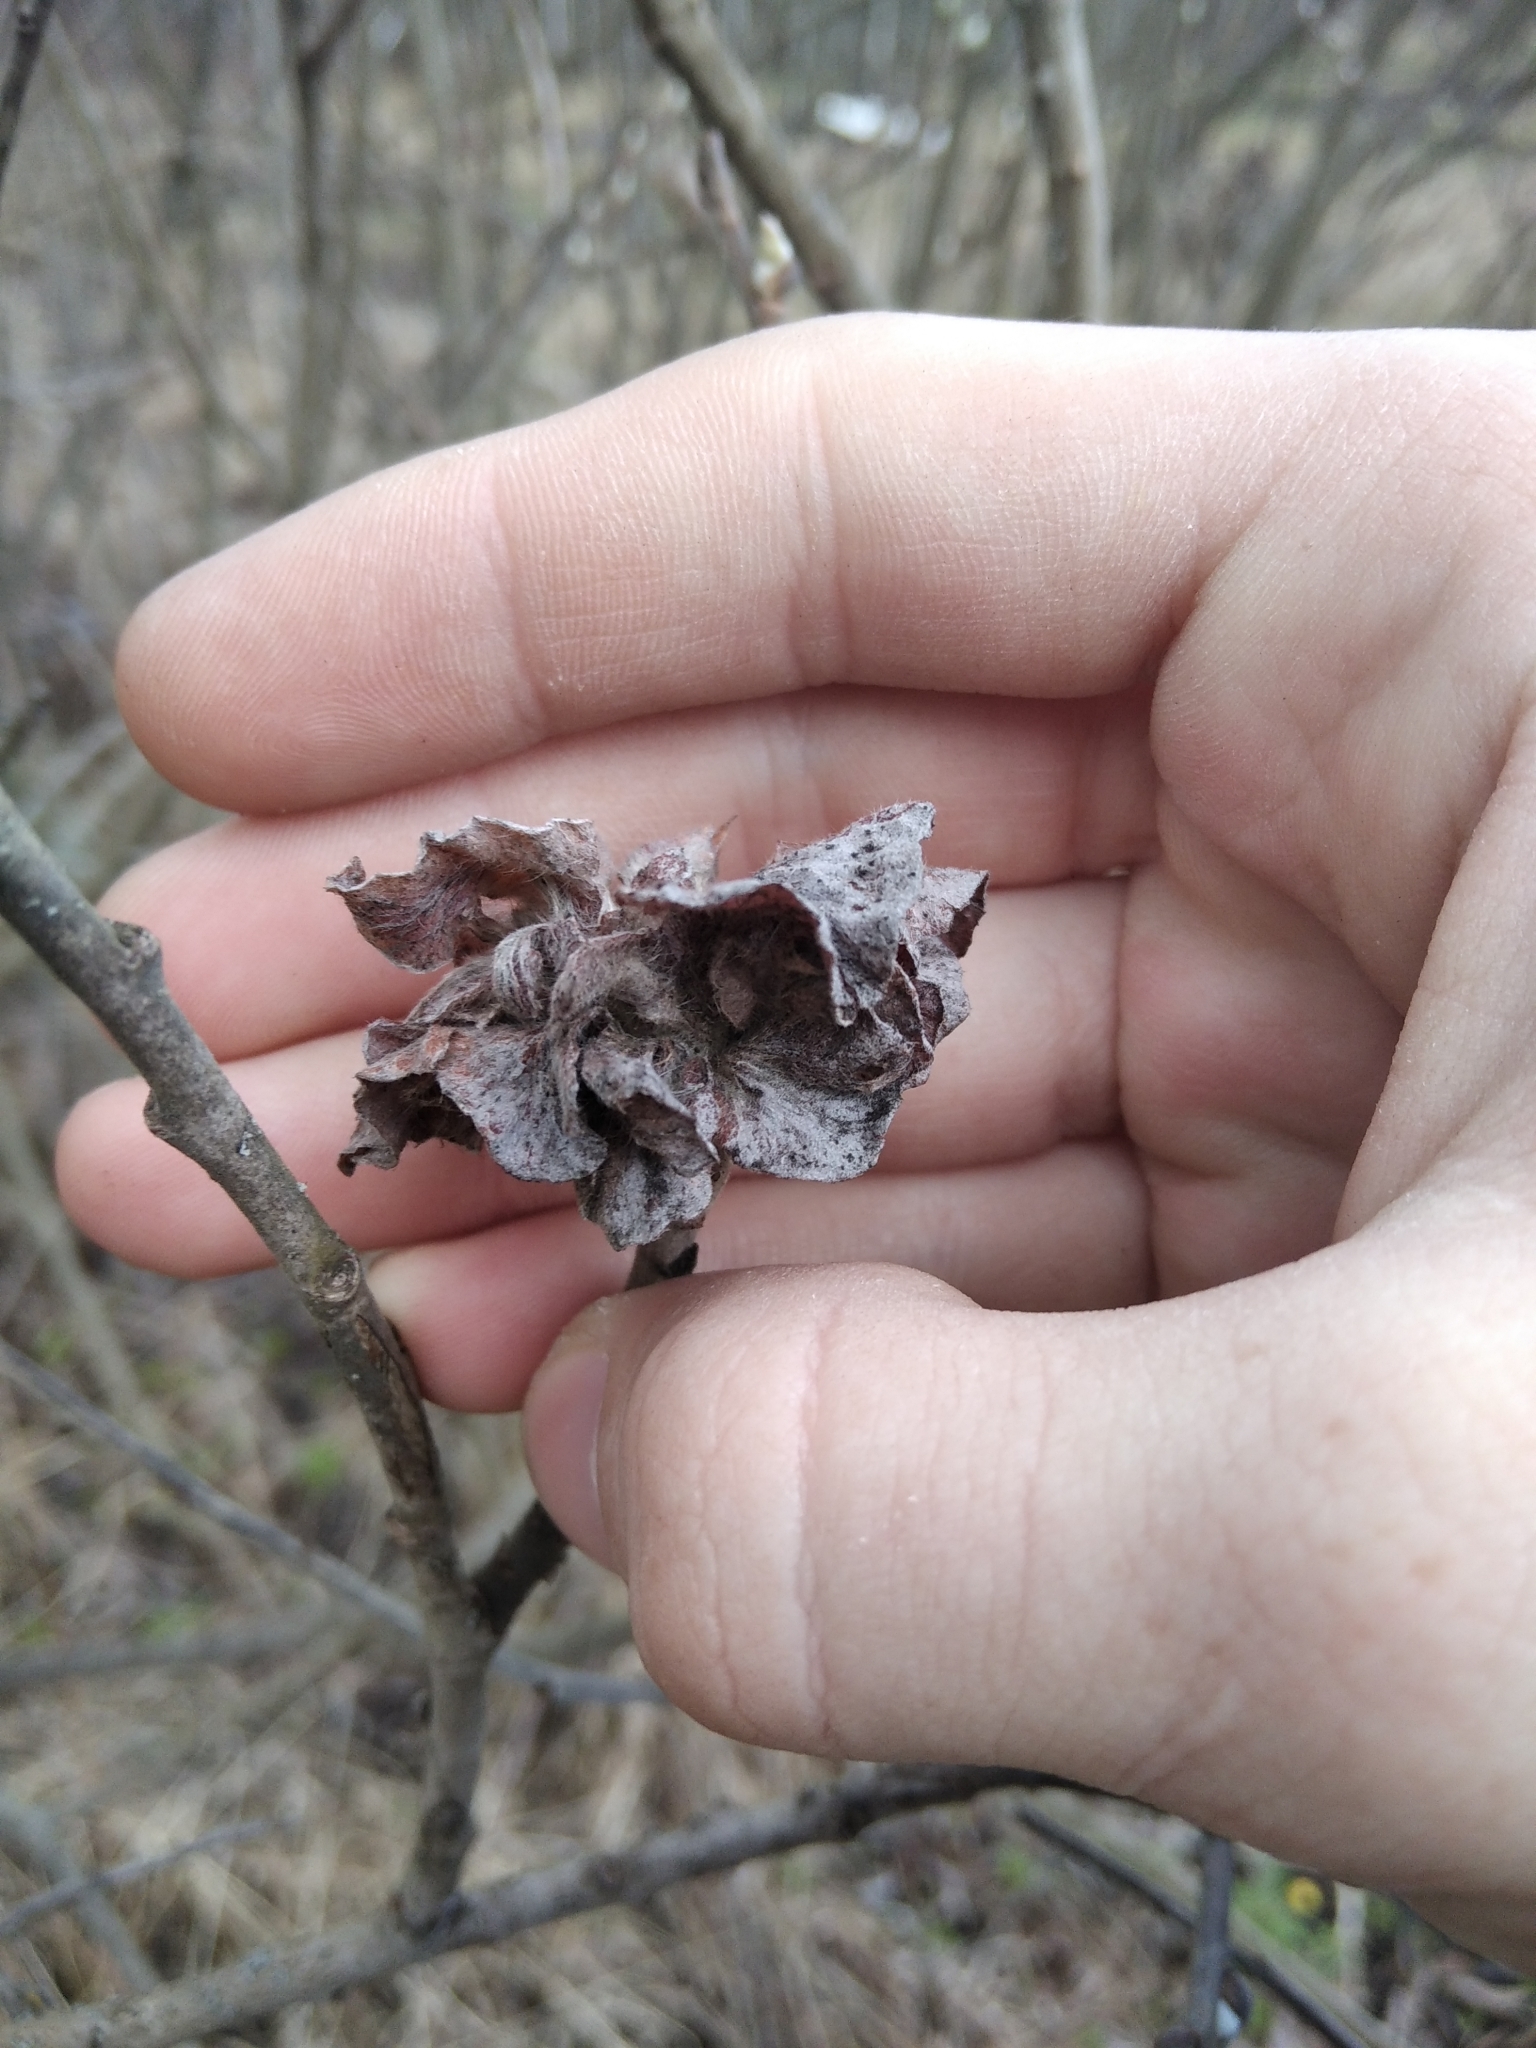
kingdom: Animalia
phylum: Arthropoda
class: Insecta
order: Diptera
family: Cecidomyiidae
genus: Rabdophaga
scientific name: Rabdophaga rosaria
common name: Willow rose gall midge
